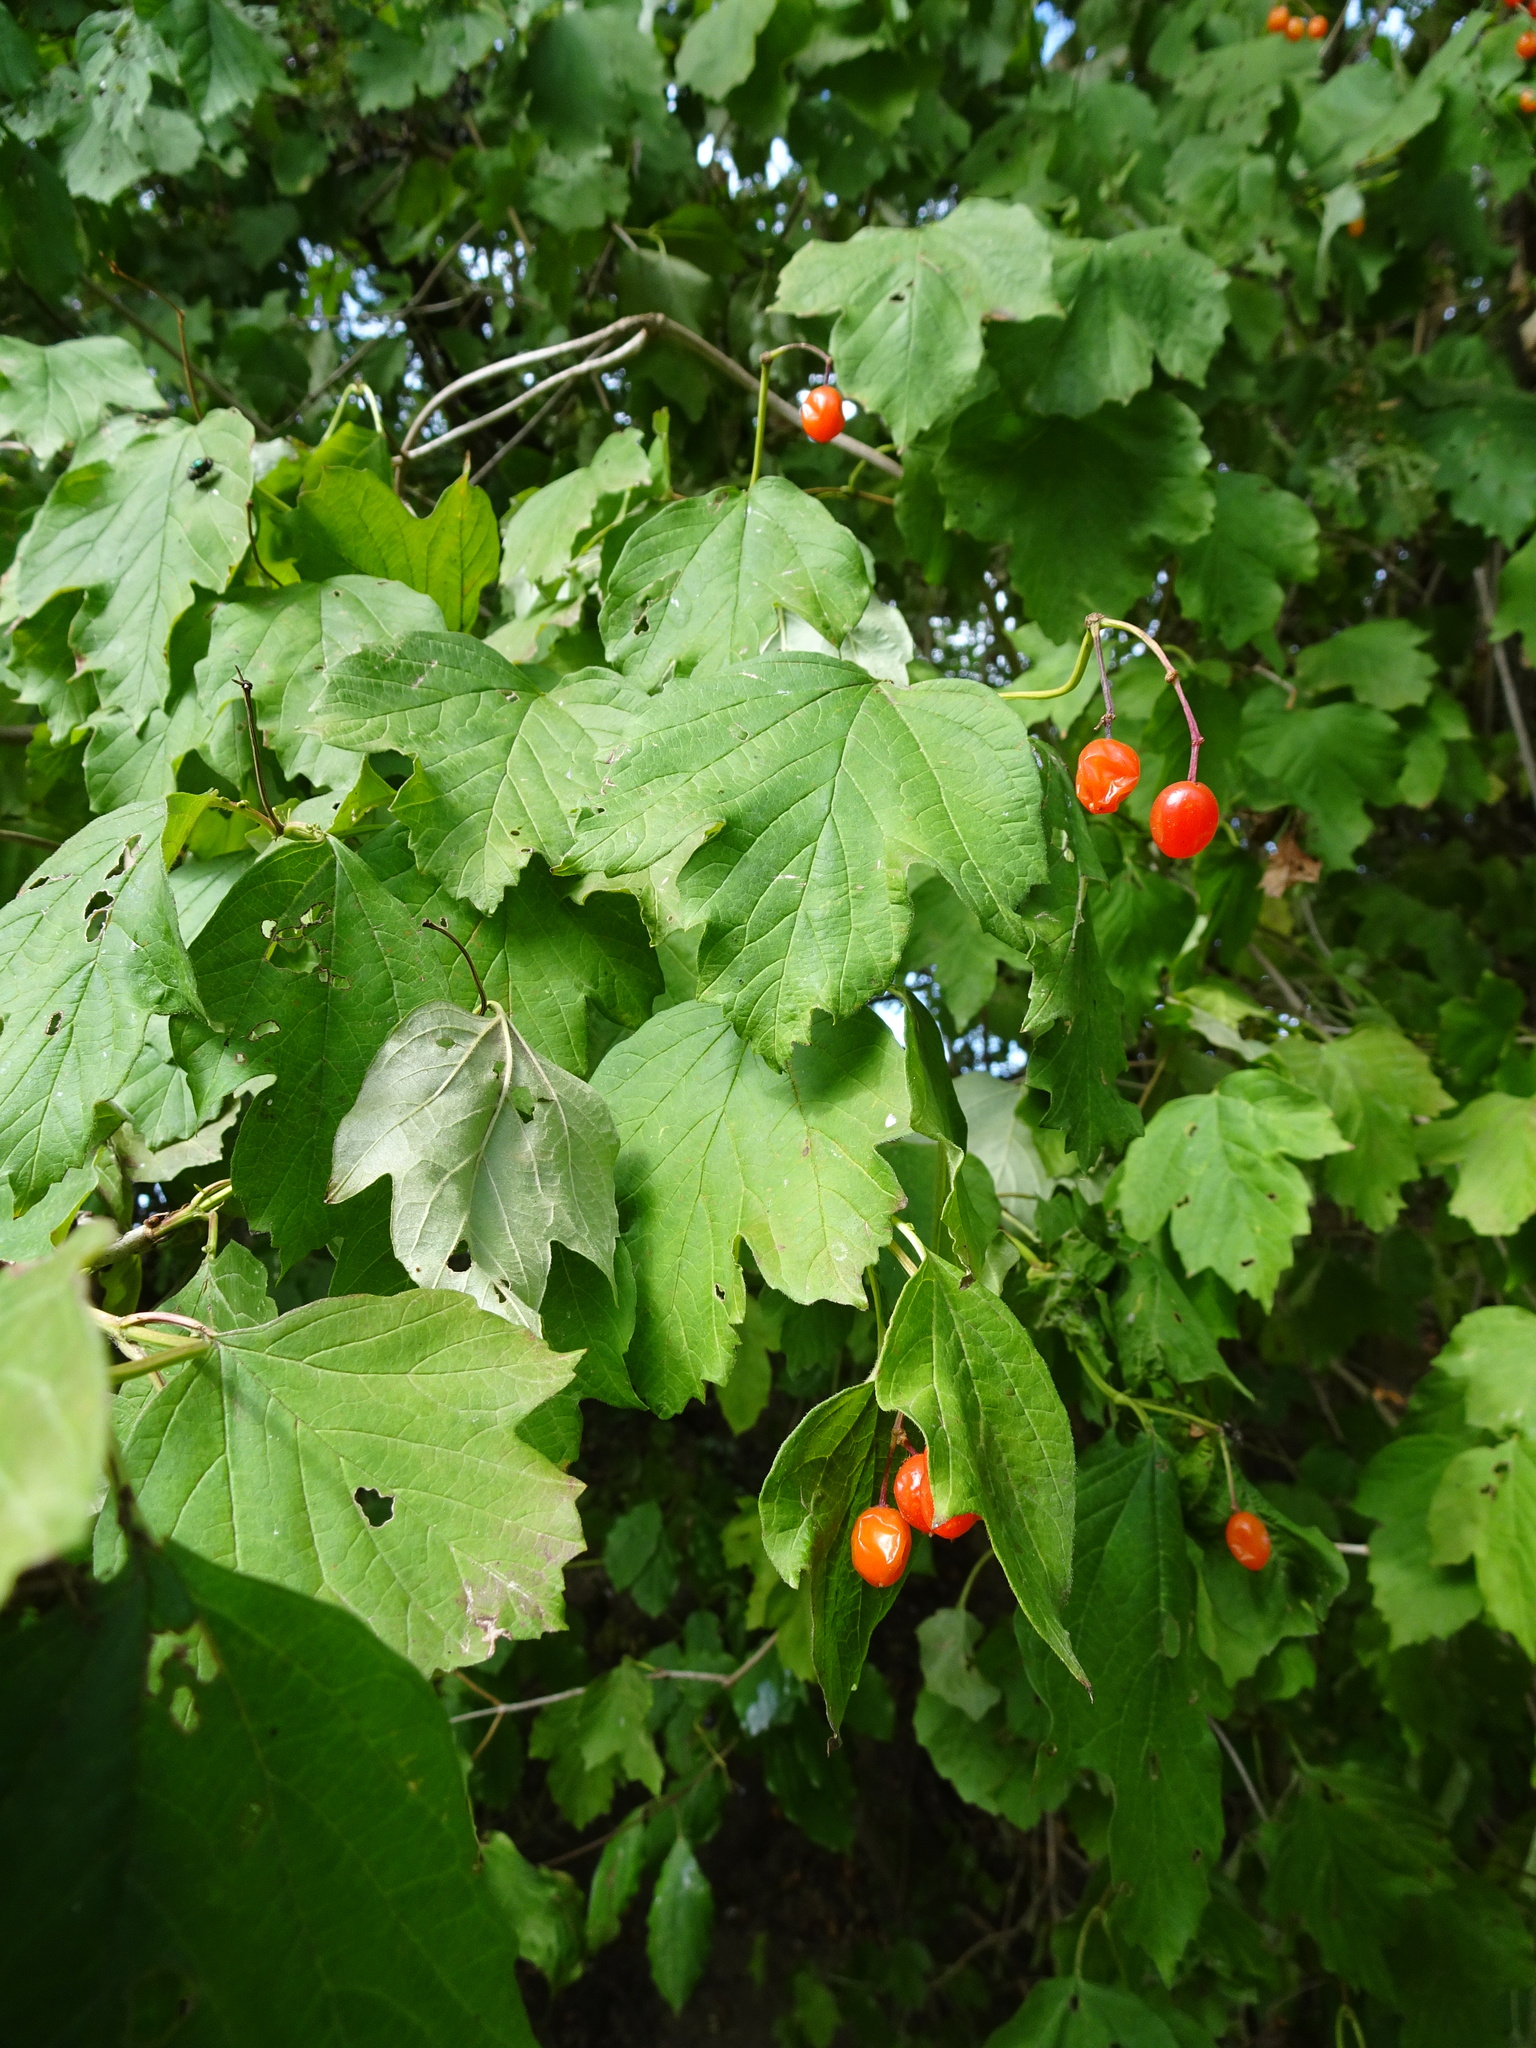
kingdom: Plantae
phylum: Tracheophyta
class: Magnoliopsida
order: Dipsacales
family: Viburnaceae
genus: Viburnum
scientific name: Viburnum opulus
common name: Guelder-rose
